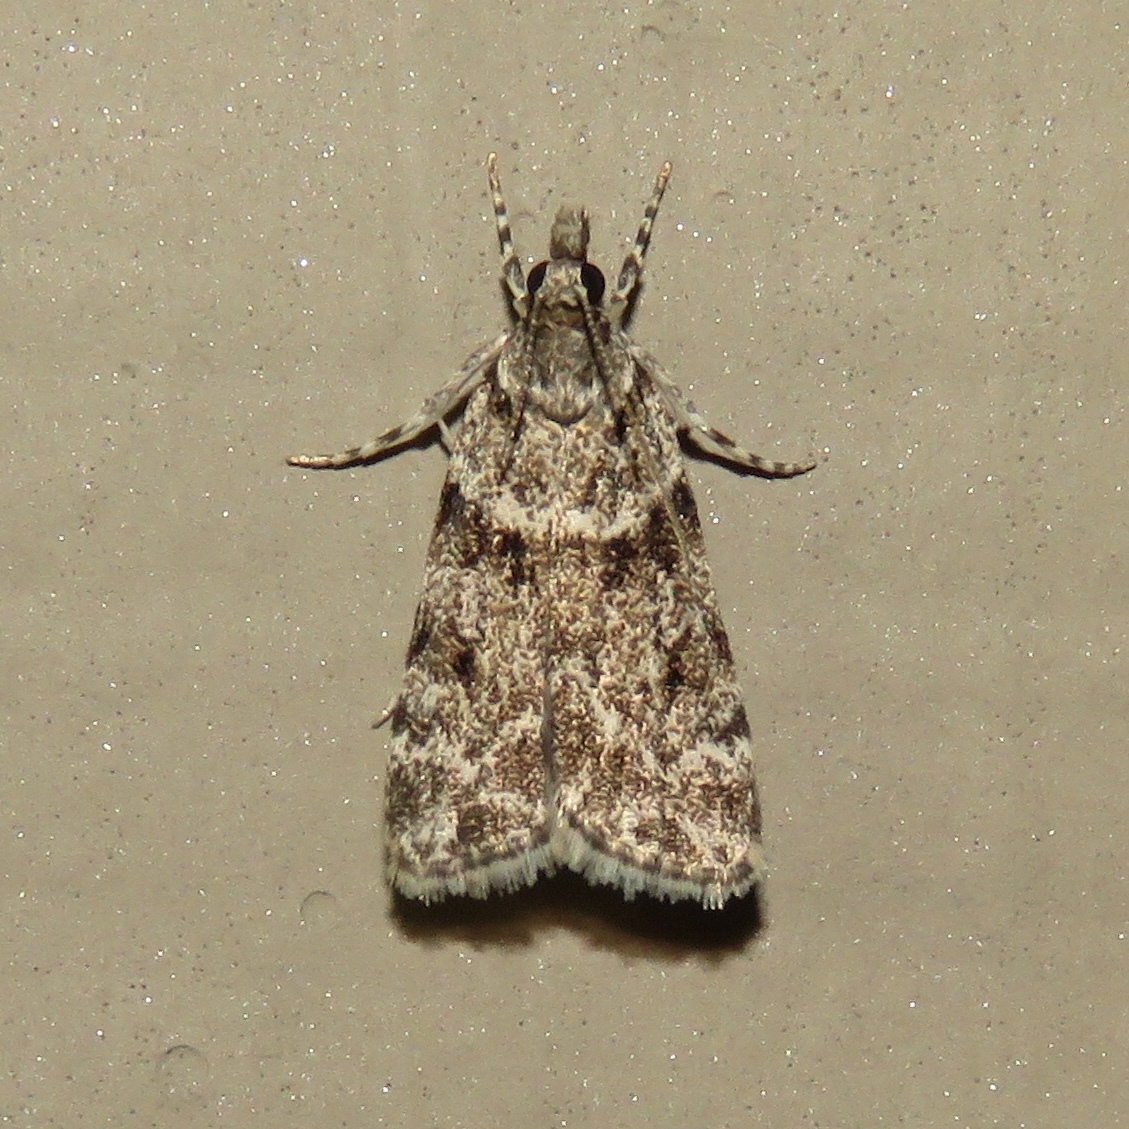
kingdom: Animalia
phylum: Arthropoda
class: Insecta
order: Lepidoptera
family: Crambidae
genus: Scoparia
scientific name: Scoparia biplagialis
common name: Double-striped scoparia moth
